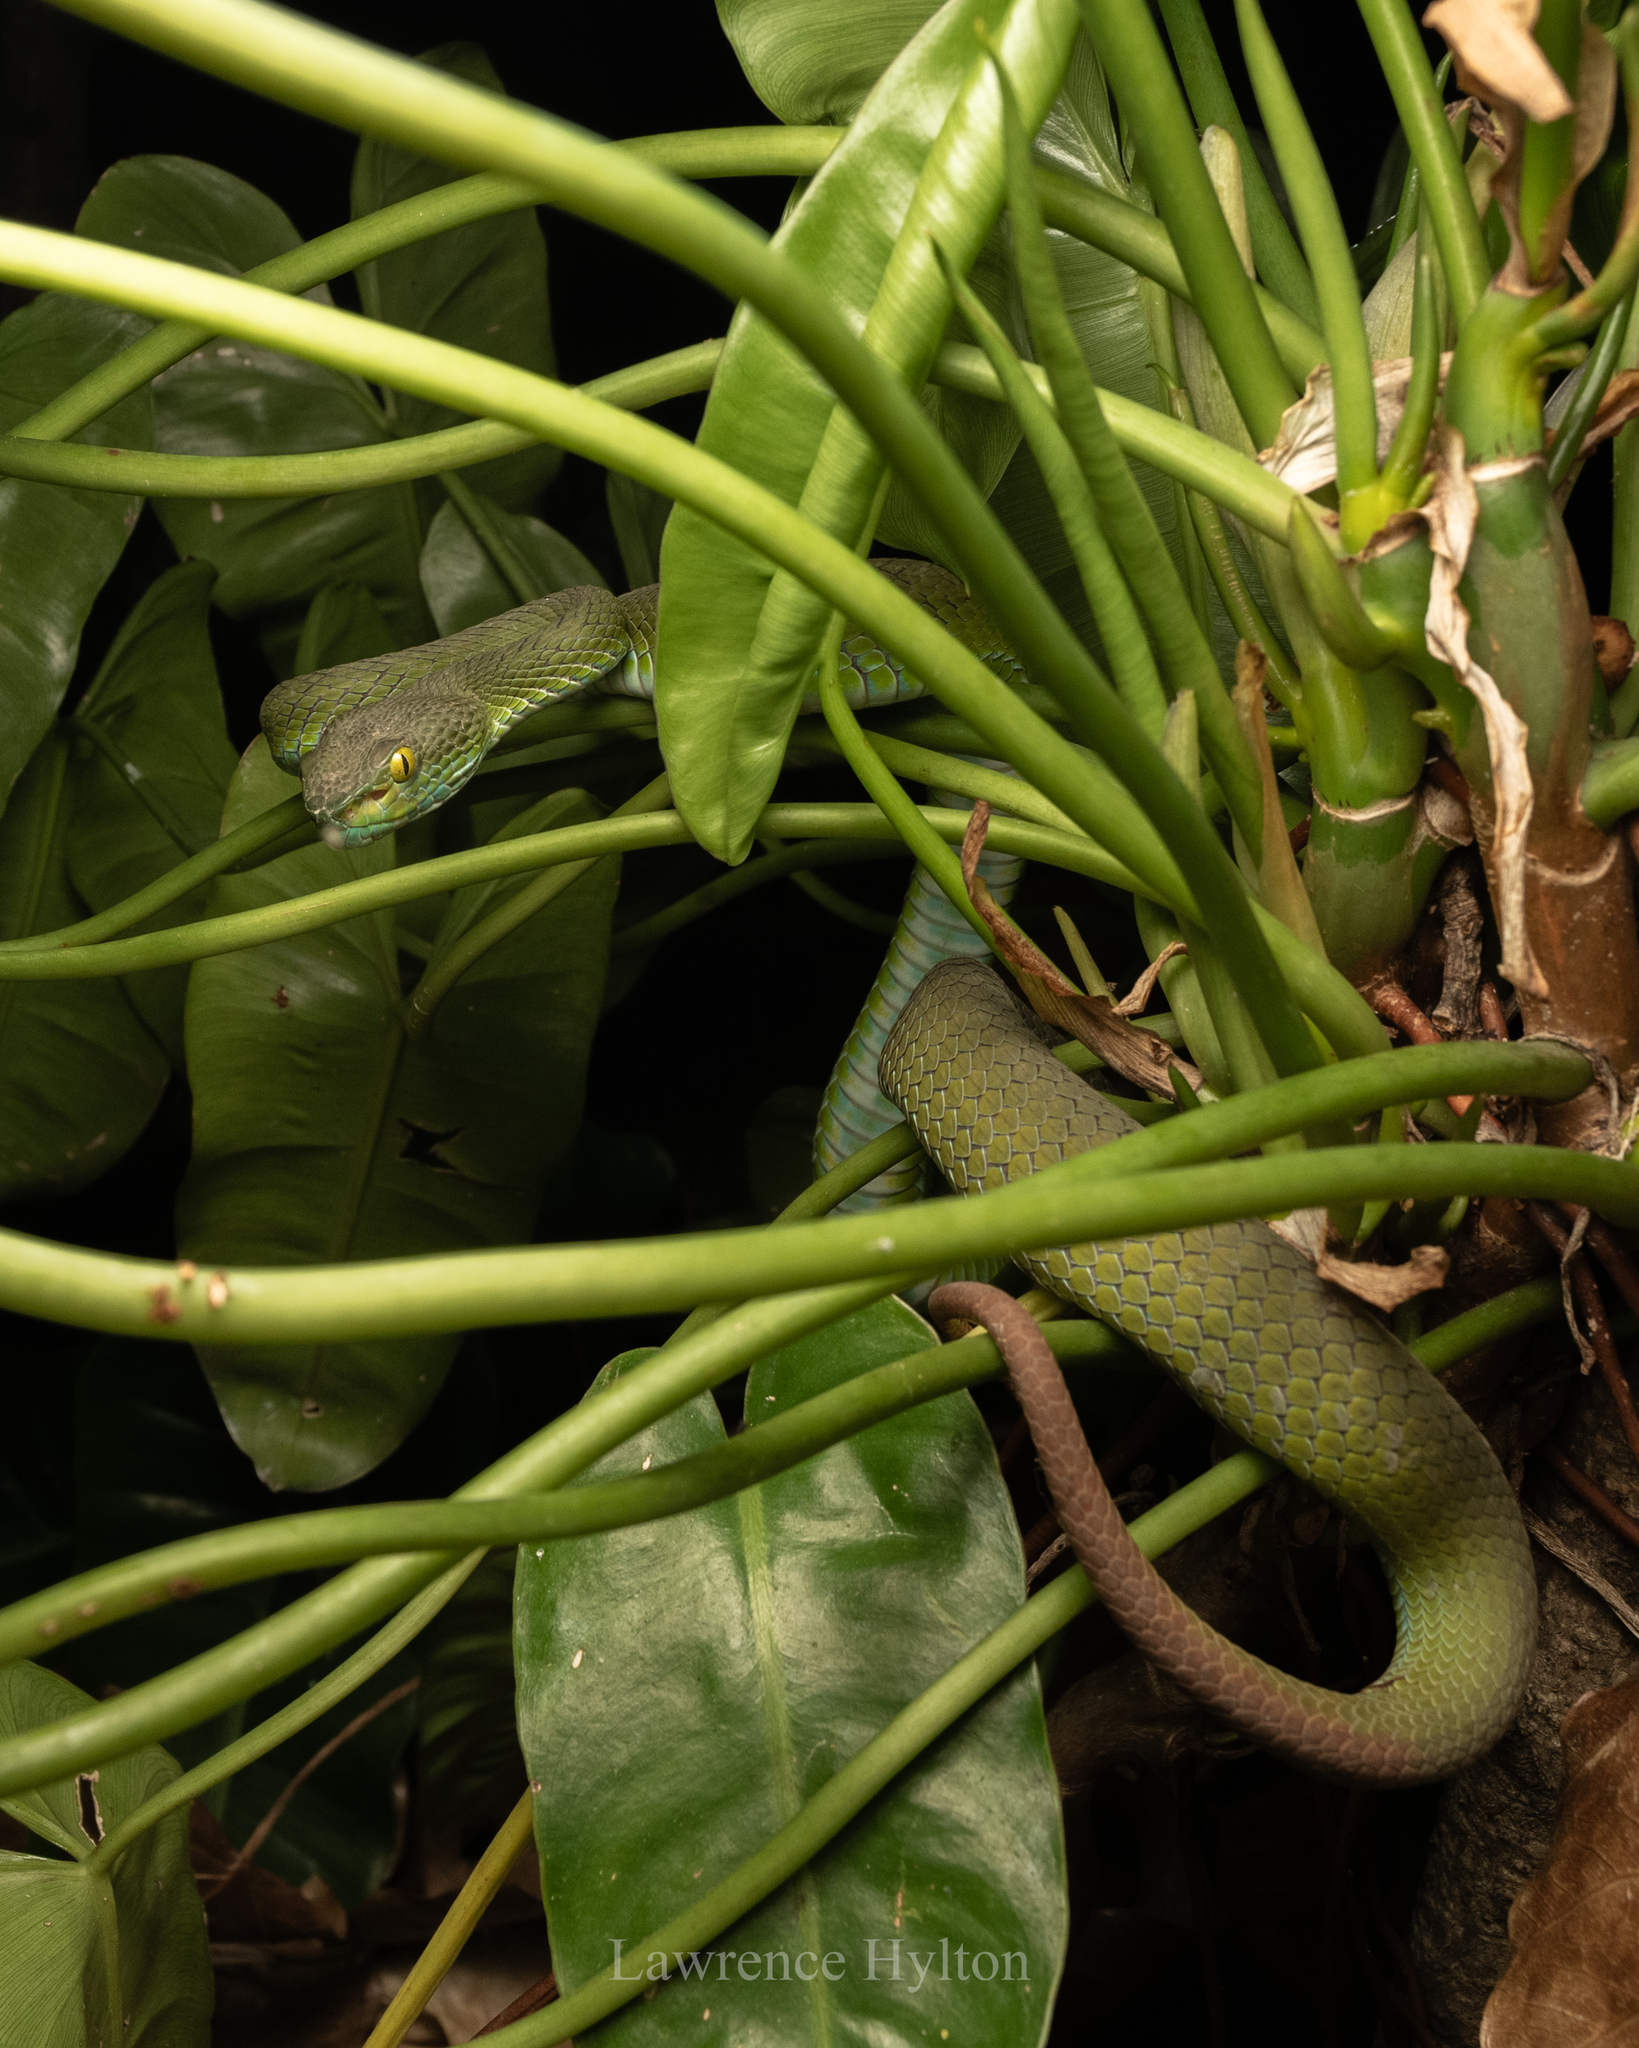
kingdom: Animalia
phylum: Chordata
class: Squamata
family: Viperidae
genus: Trimeresurus
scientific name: Trimeresurus macrops
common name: Kramer's pit viper
